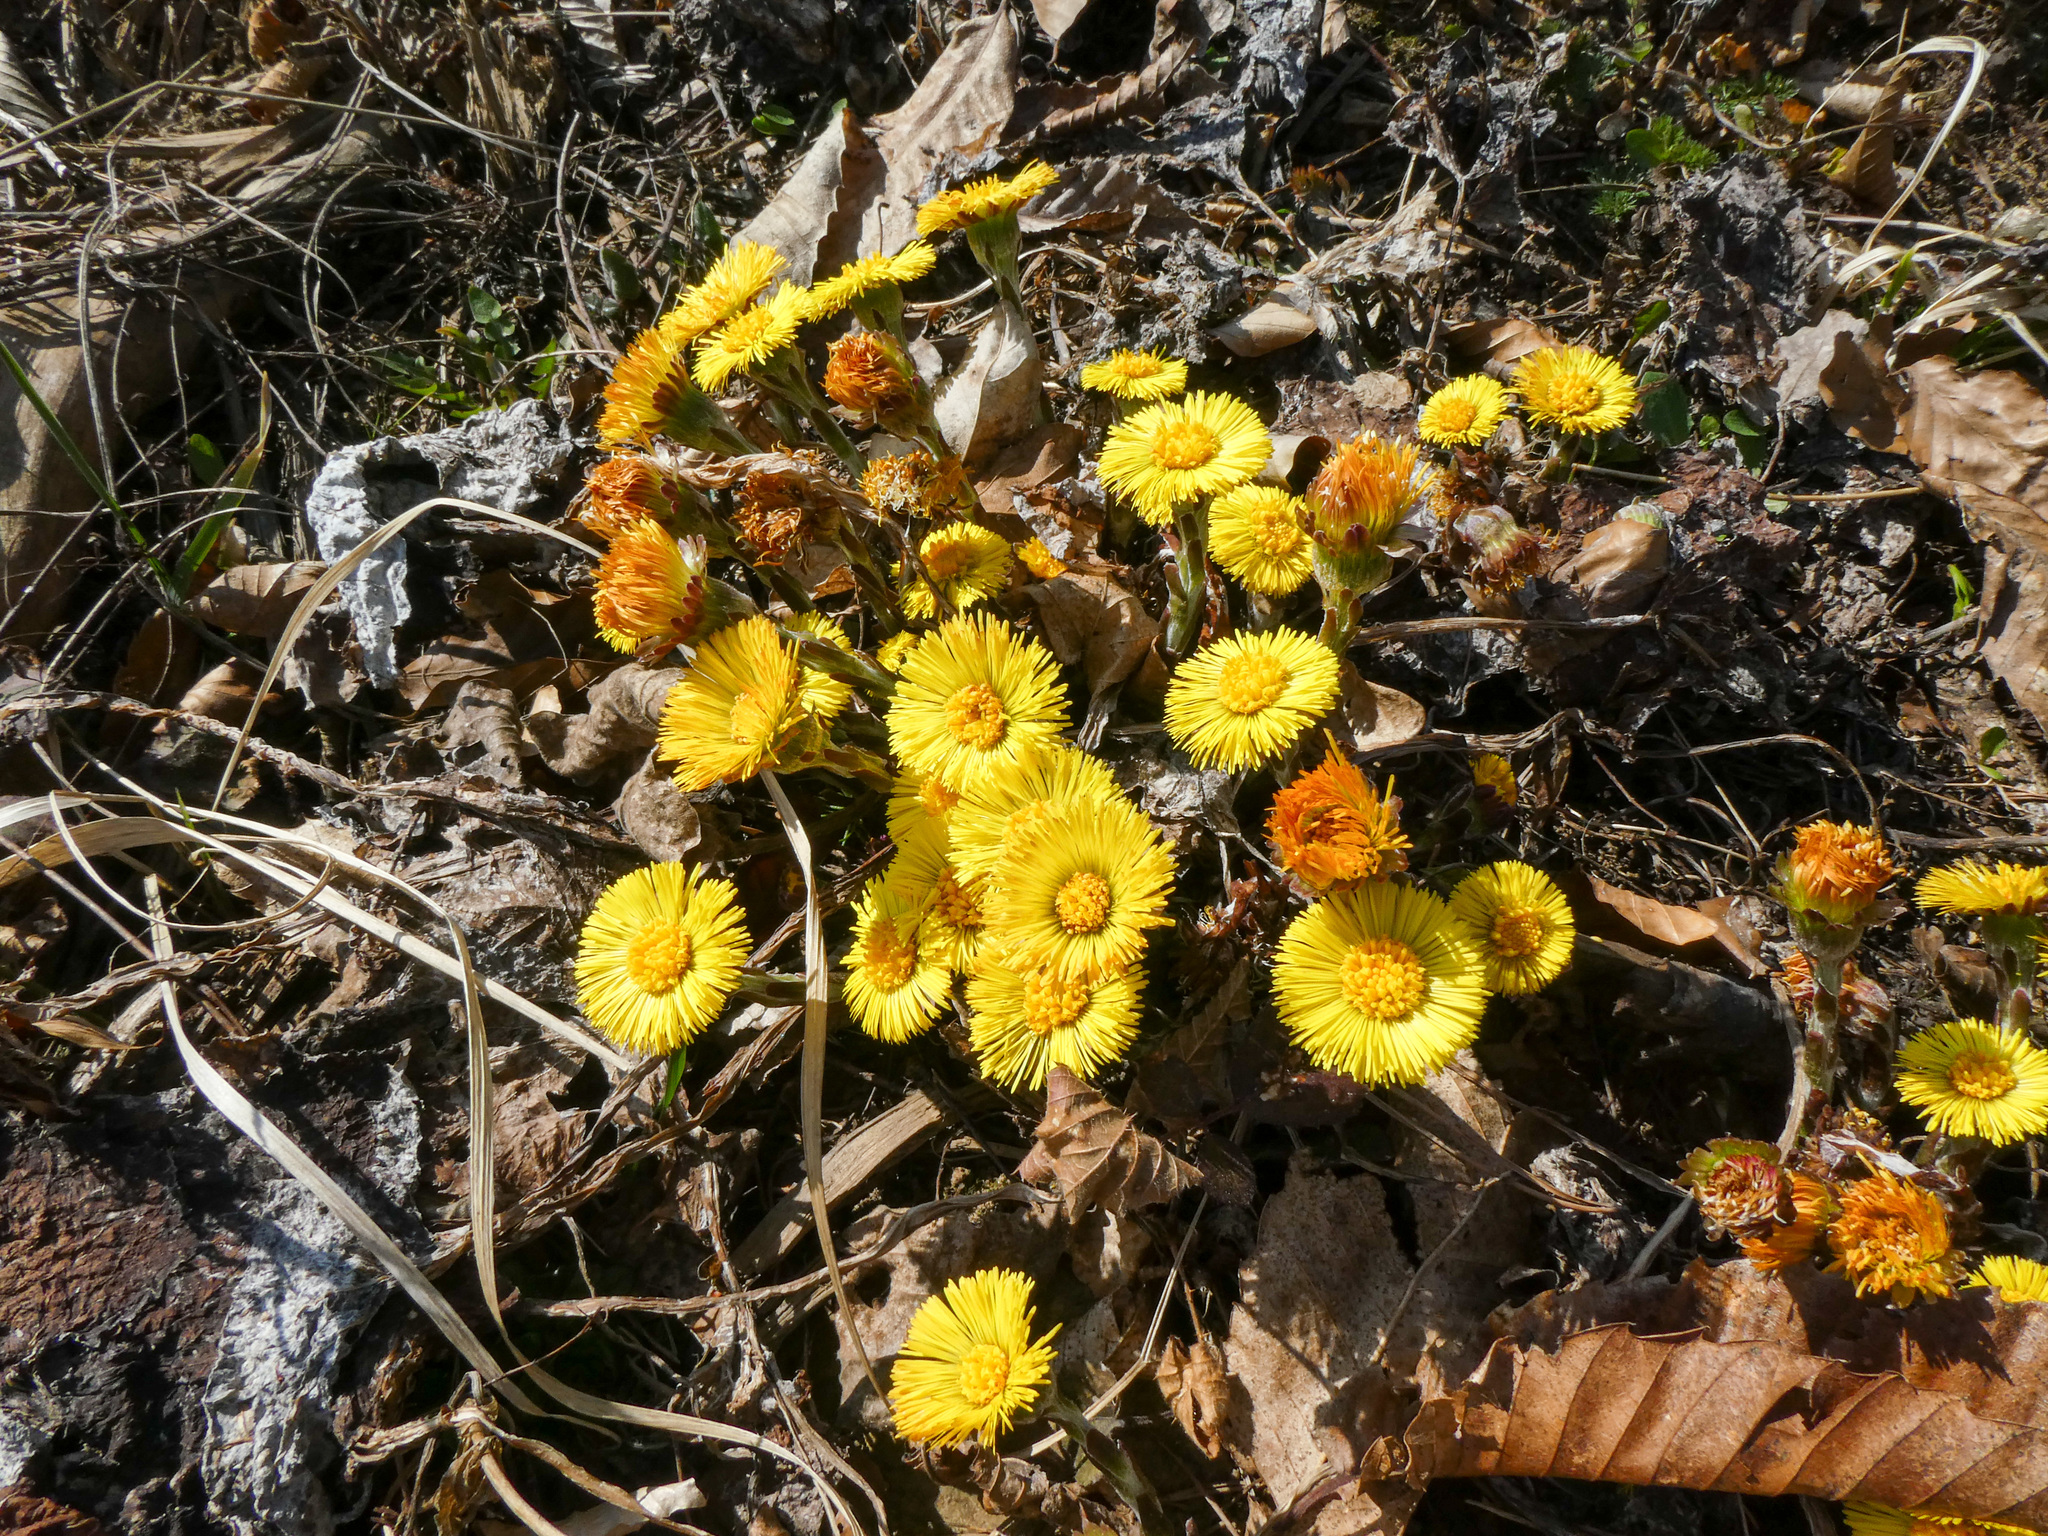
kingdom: Plantae
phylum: Tracheophyta
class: Magnoliopsida
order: Asterales
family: Asteraceae
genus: Tussilago
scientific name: Tussilago farfara
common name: Coltsfoot
